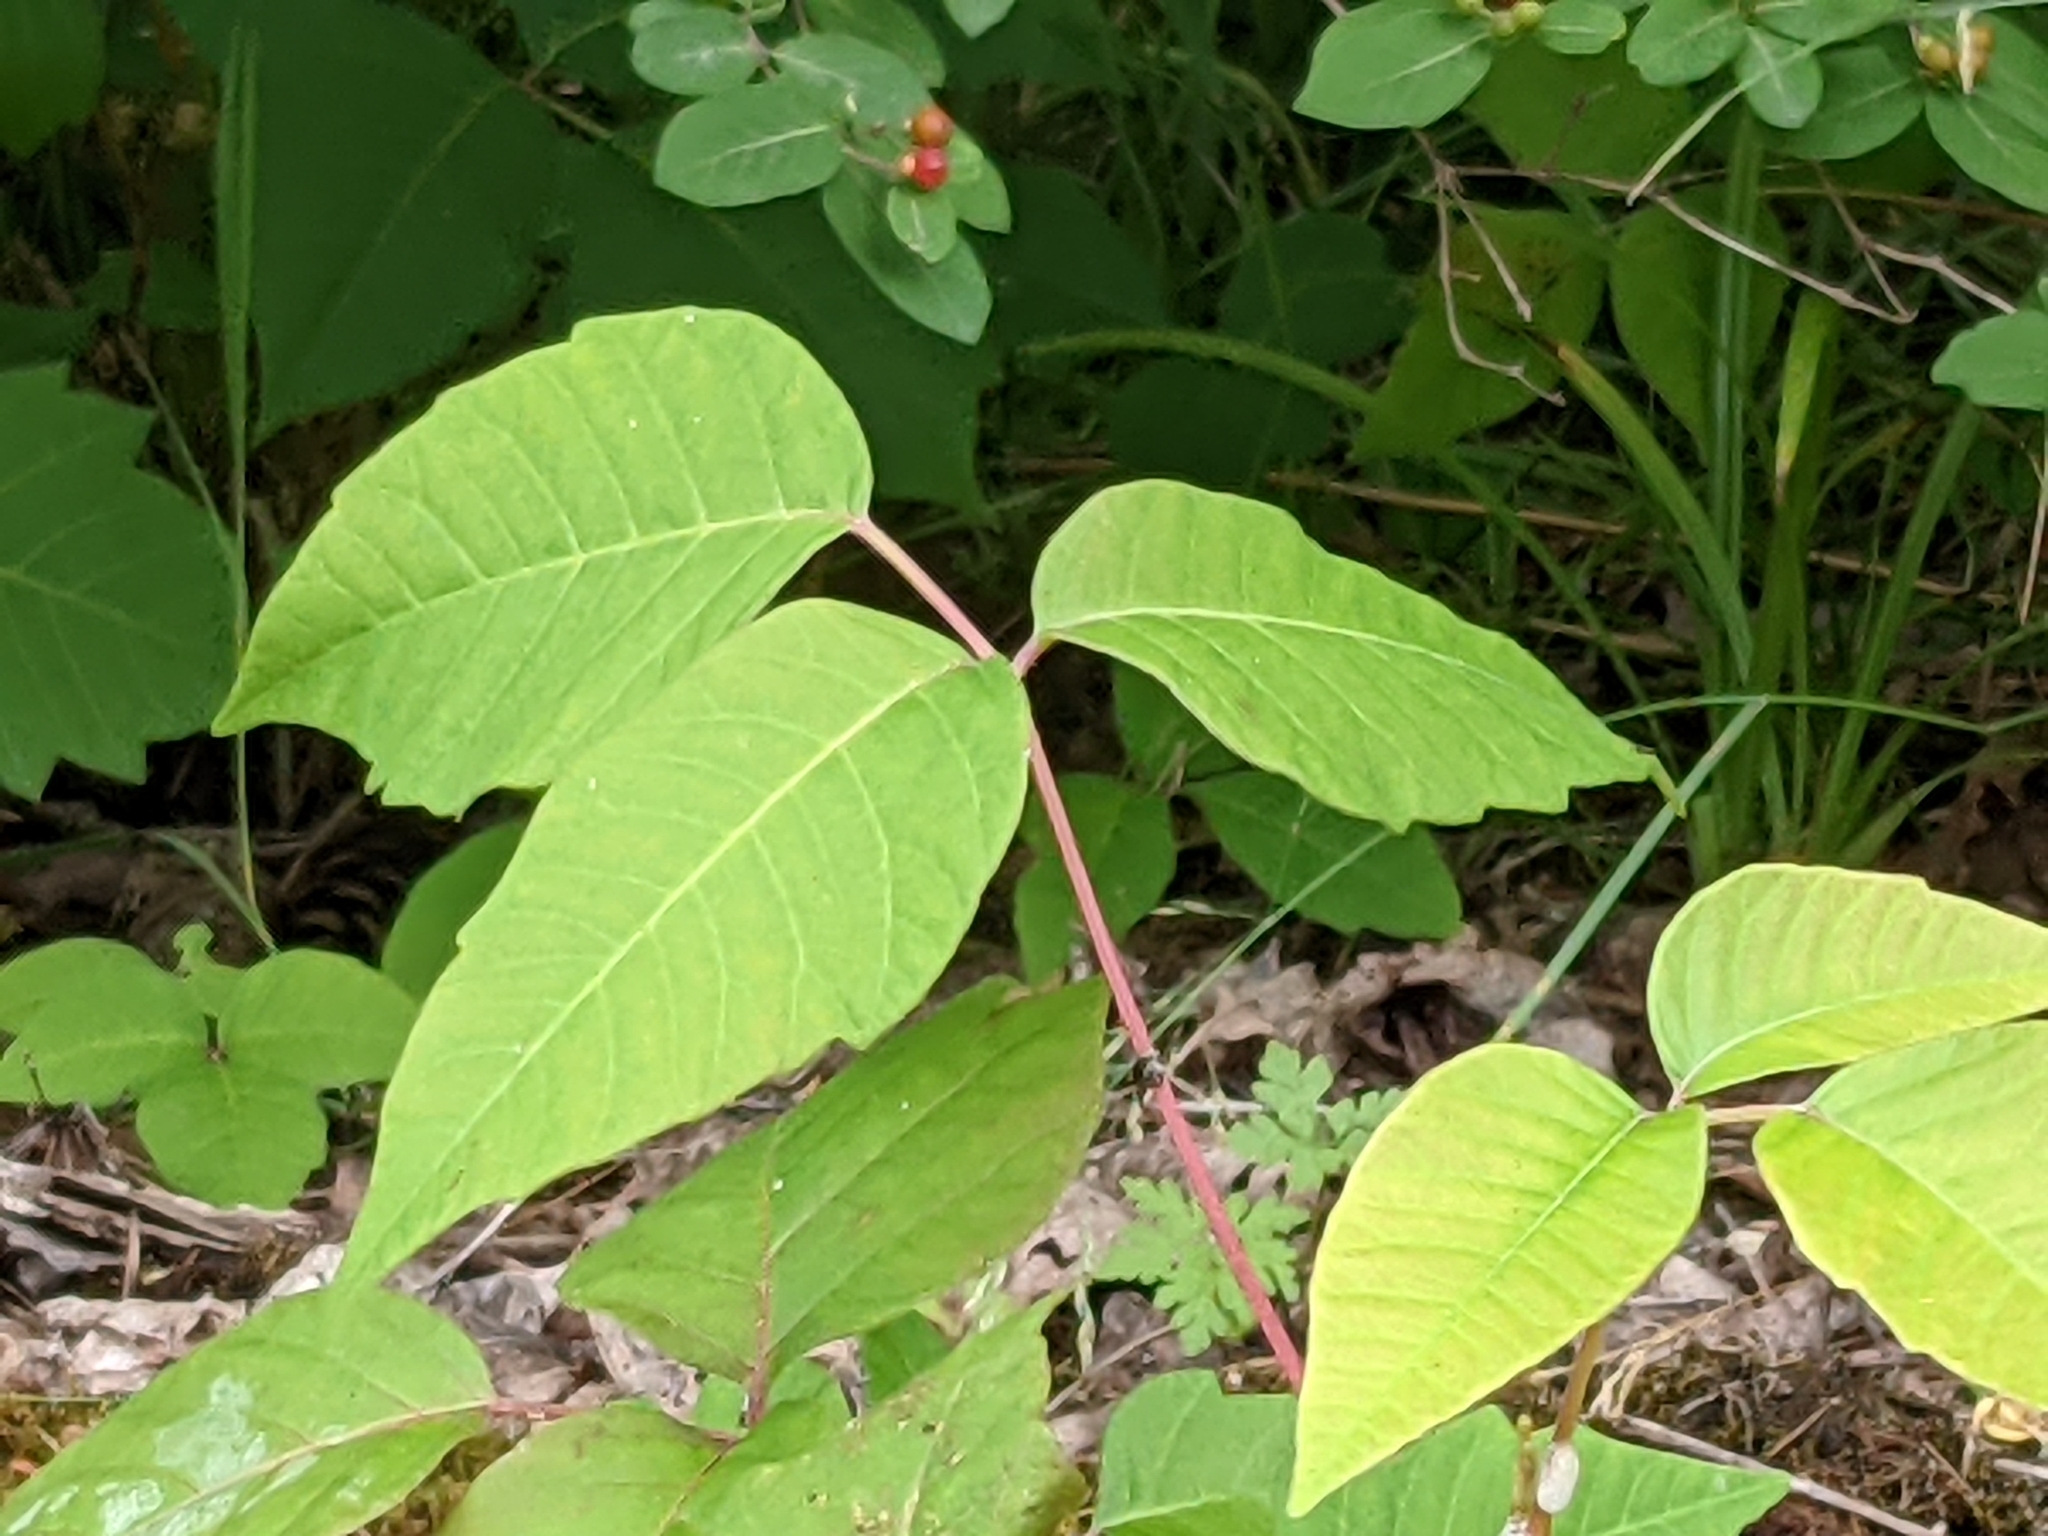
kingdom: Plantae
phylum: Tracheophyta
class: Magnoliopsida
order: Sapindales
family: Anacardiaceae
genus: Toxicodendron
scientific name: Toxicodendron radicans
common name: Poison ivy
